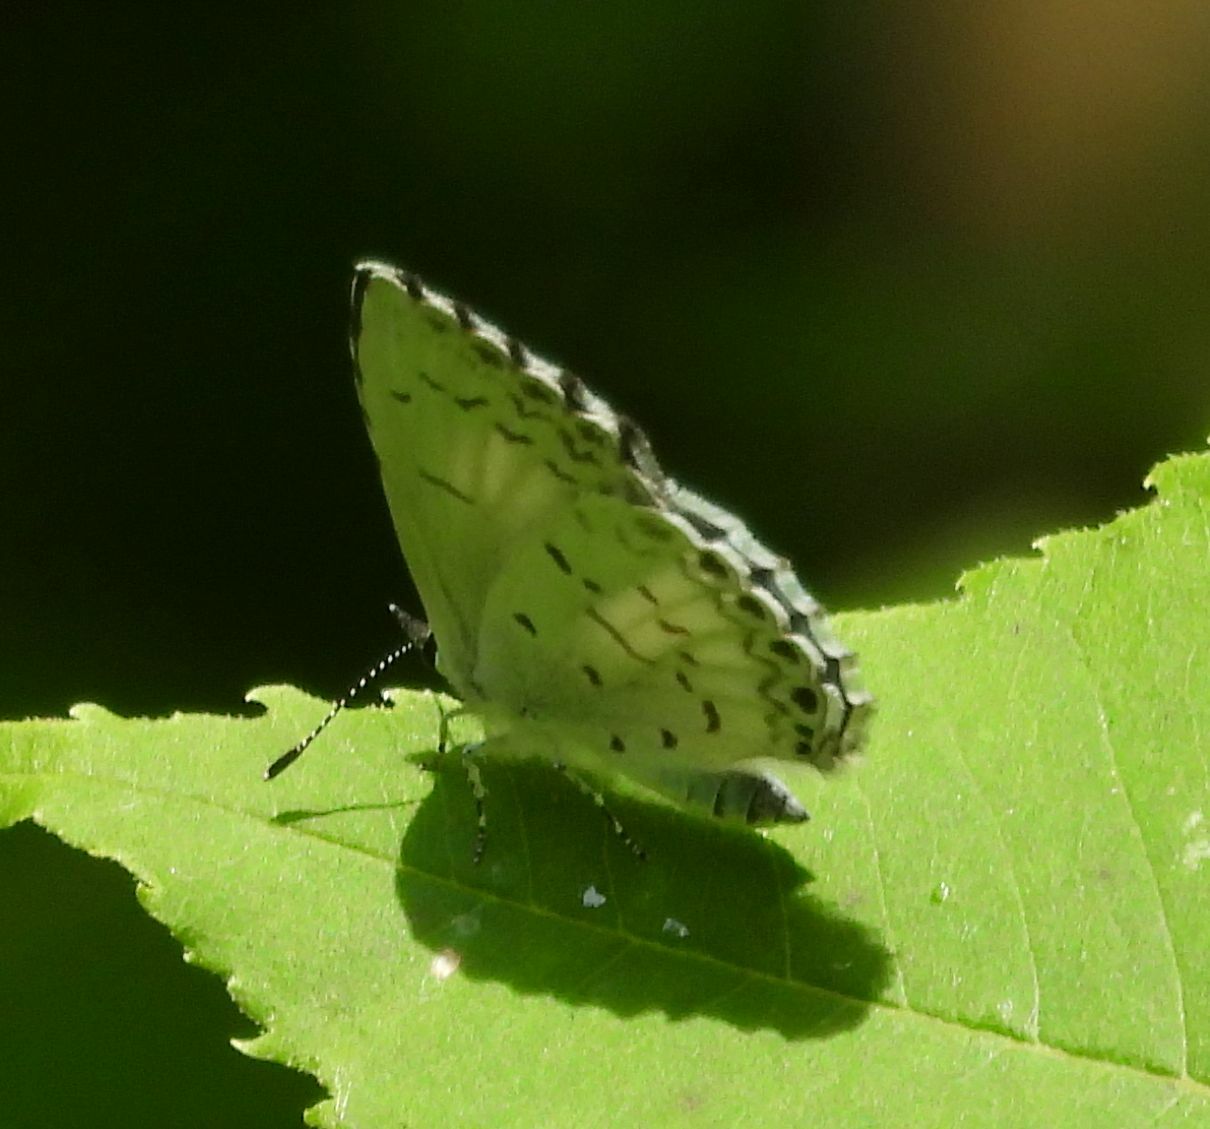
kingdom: Animalia
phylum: Arthropoda
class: Insecta
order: Lepidoptera
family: Lycaenidae
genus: Celastrina
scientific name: Celastrina lucia
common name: Lucia azure
